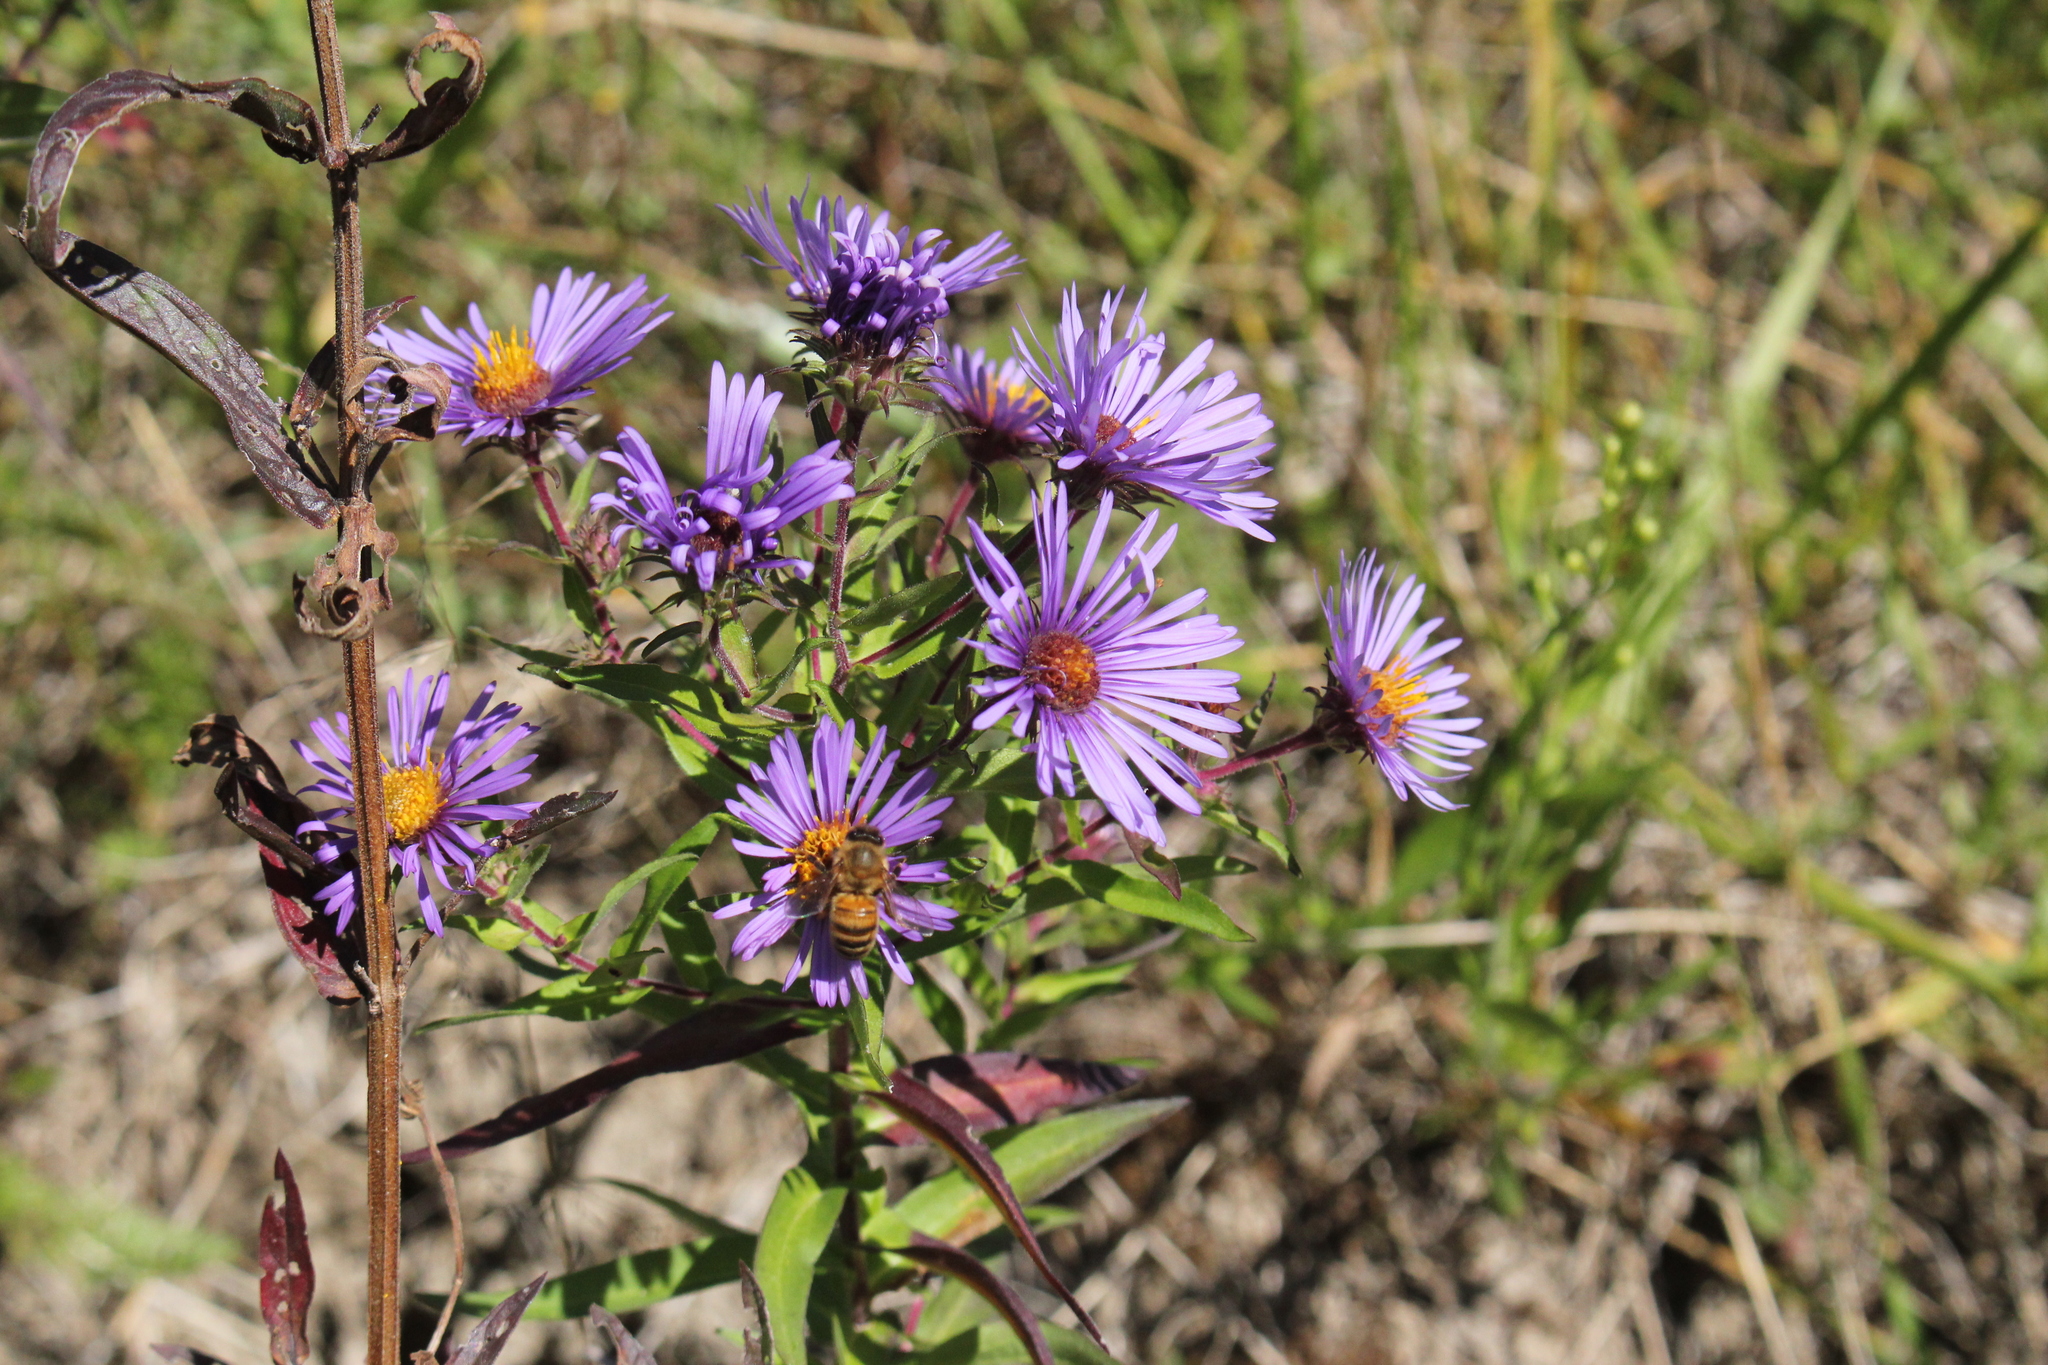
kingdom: Plantae
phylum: Tracheophyta
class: Magnoliopsida
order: Asterales
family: Asteraceae
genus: Symphyotrichum
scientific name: Symphyotrichum novae-angliae
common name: Michaelmas daisy
